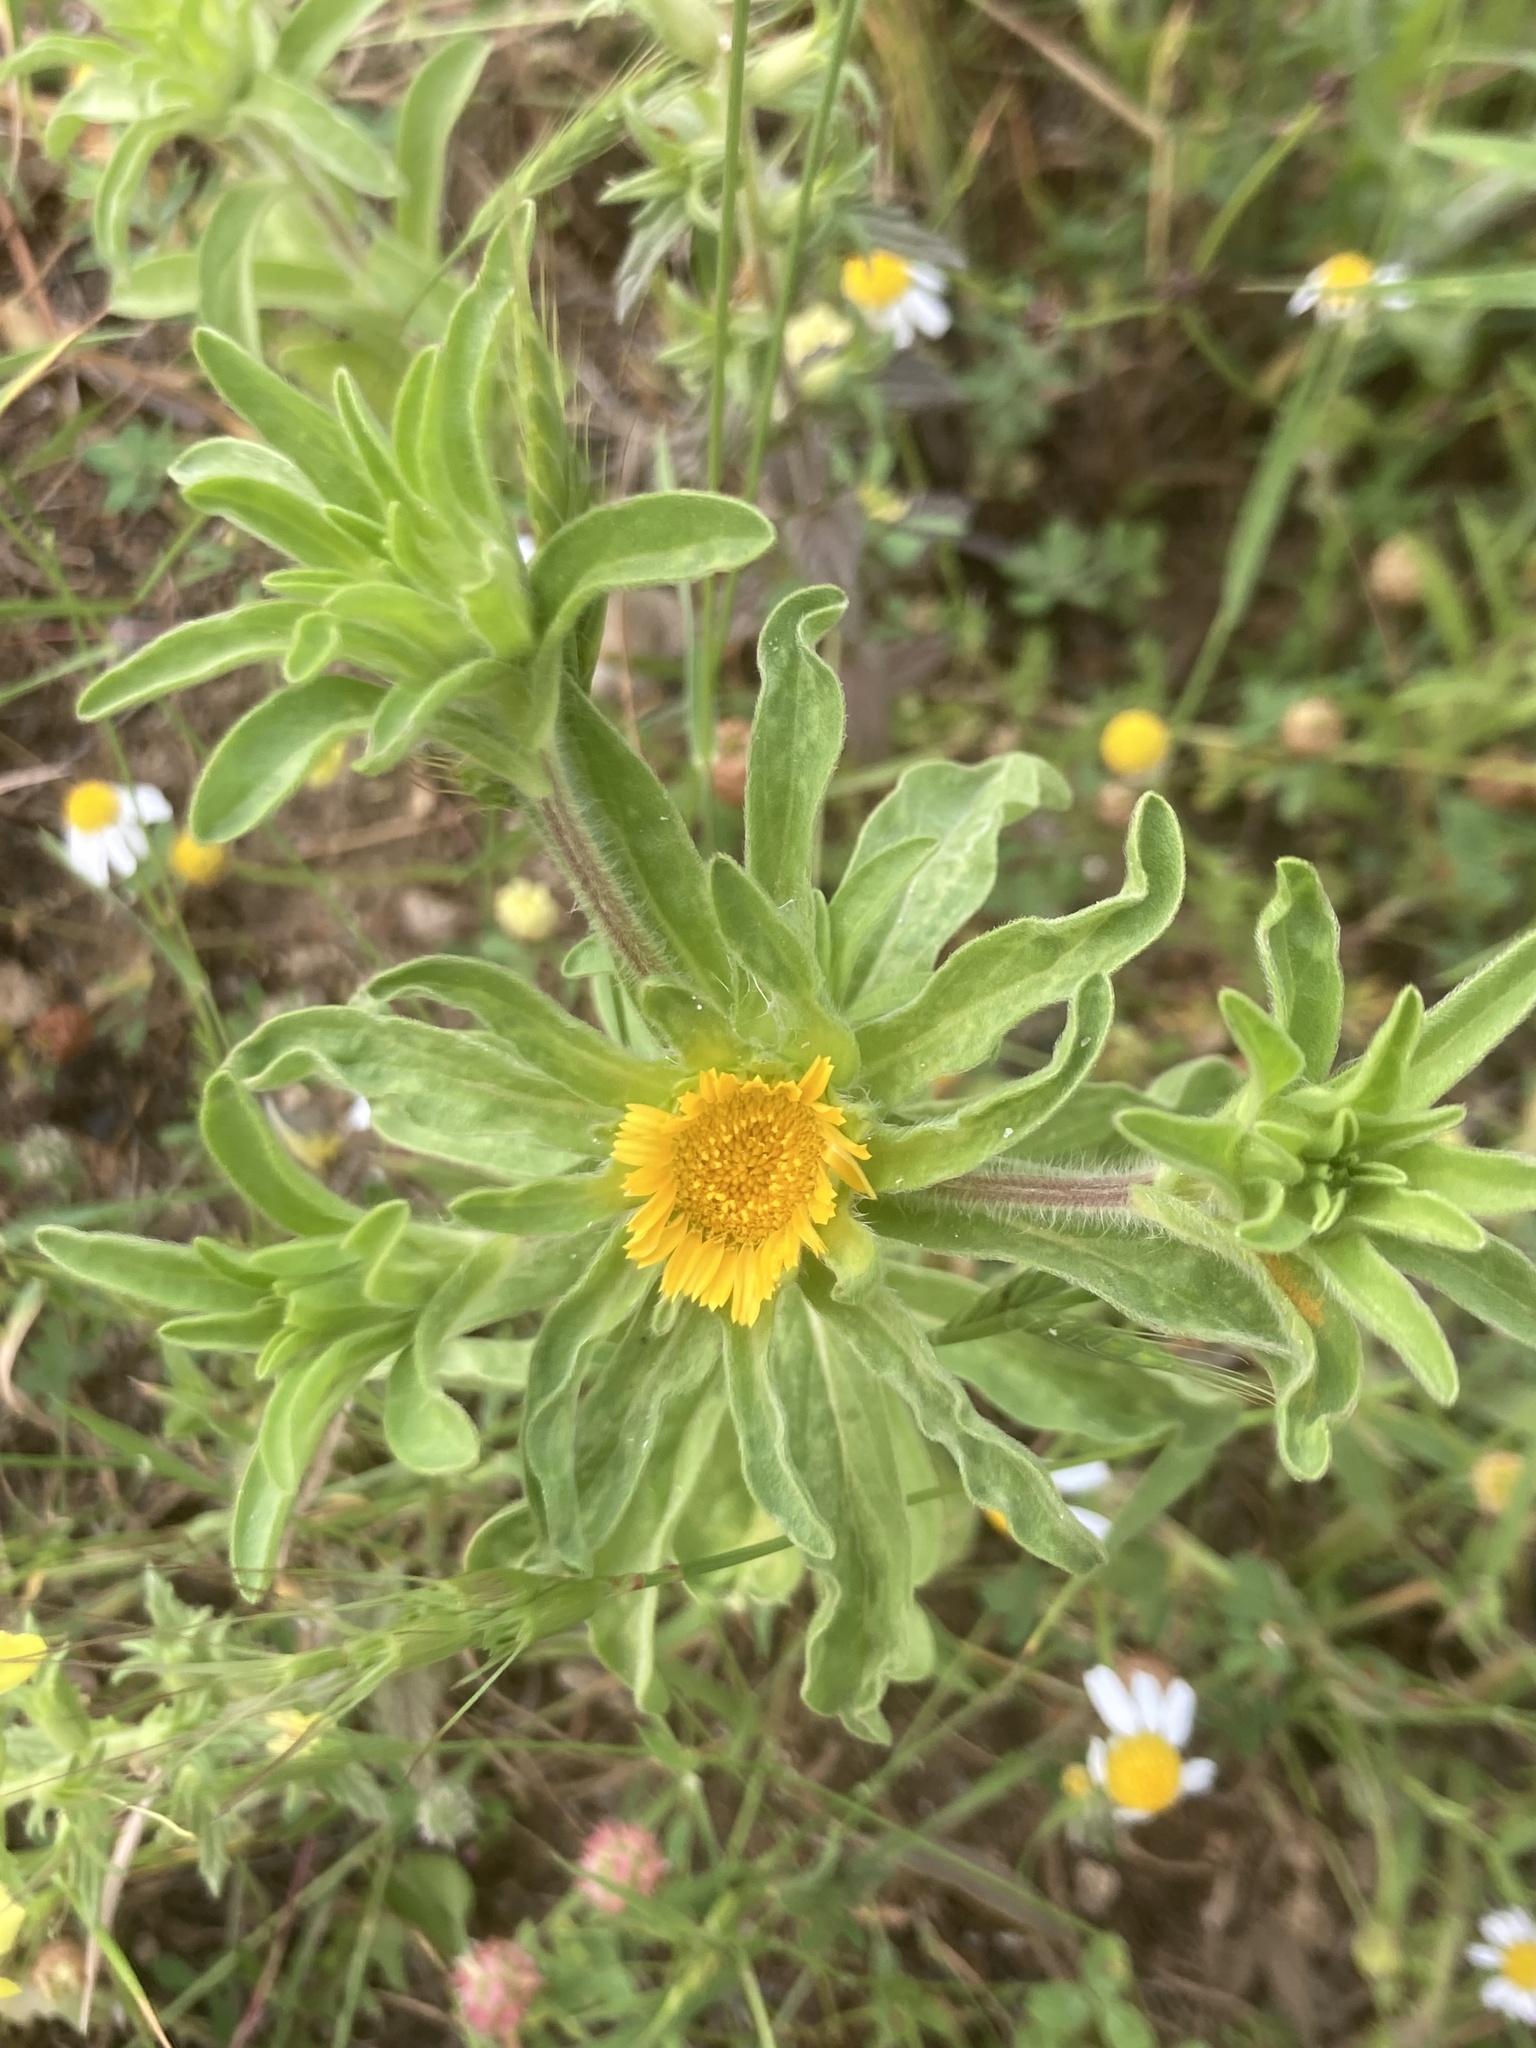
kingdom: Plantae
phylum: Tracheophyta
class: Magnoliopsida
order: Asterales
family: Asteraceae
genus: Asteriscus
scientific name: Asteriscus aquaticus
